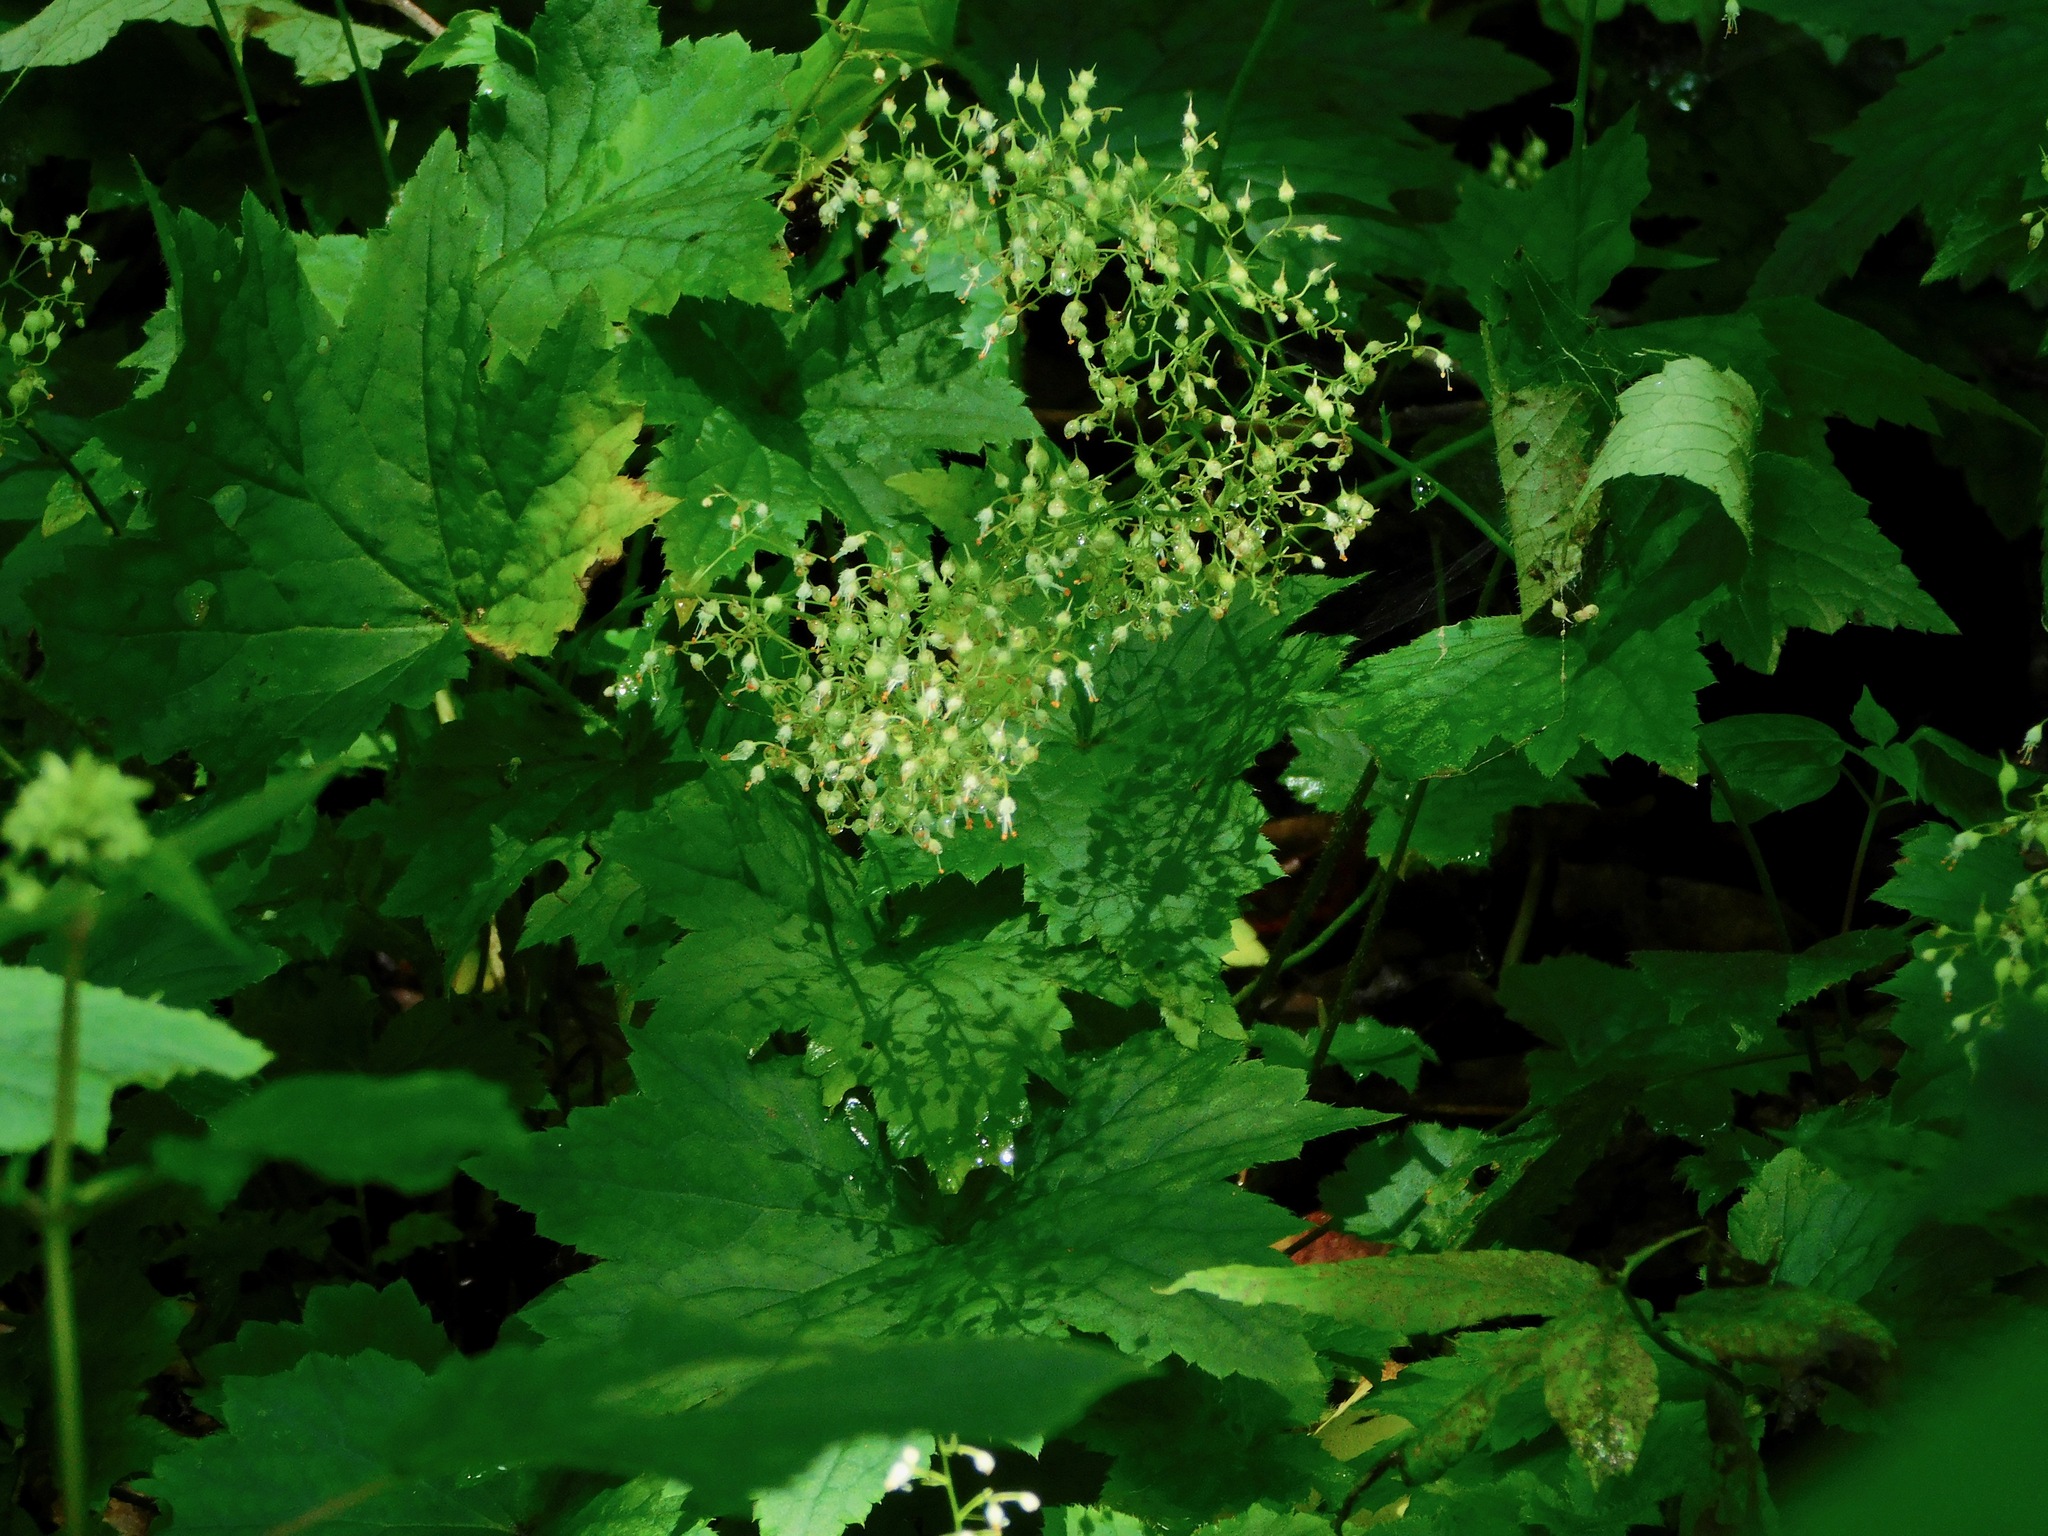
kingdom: Plantae
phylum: Tracheophyta
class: Magnoliopsida
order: Saxifragales
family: Saxifragaceae
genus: Heuchera
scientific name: Heuchera villosa
